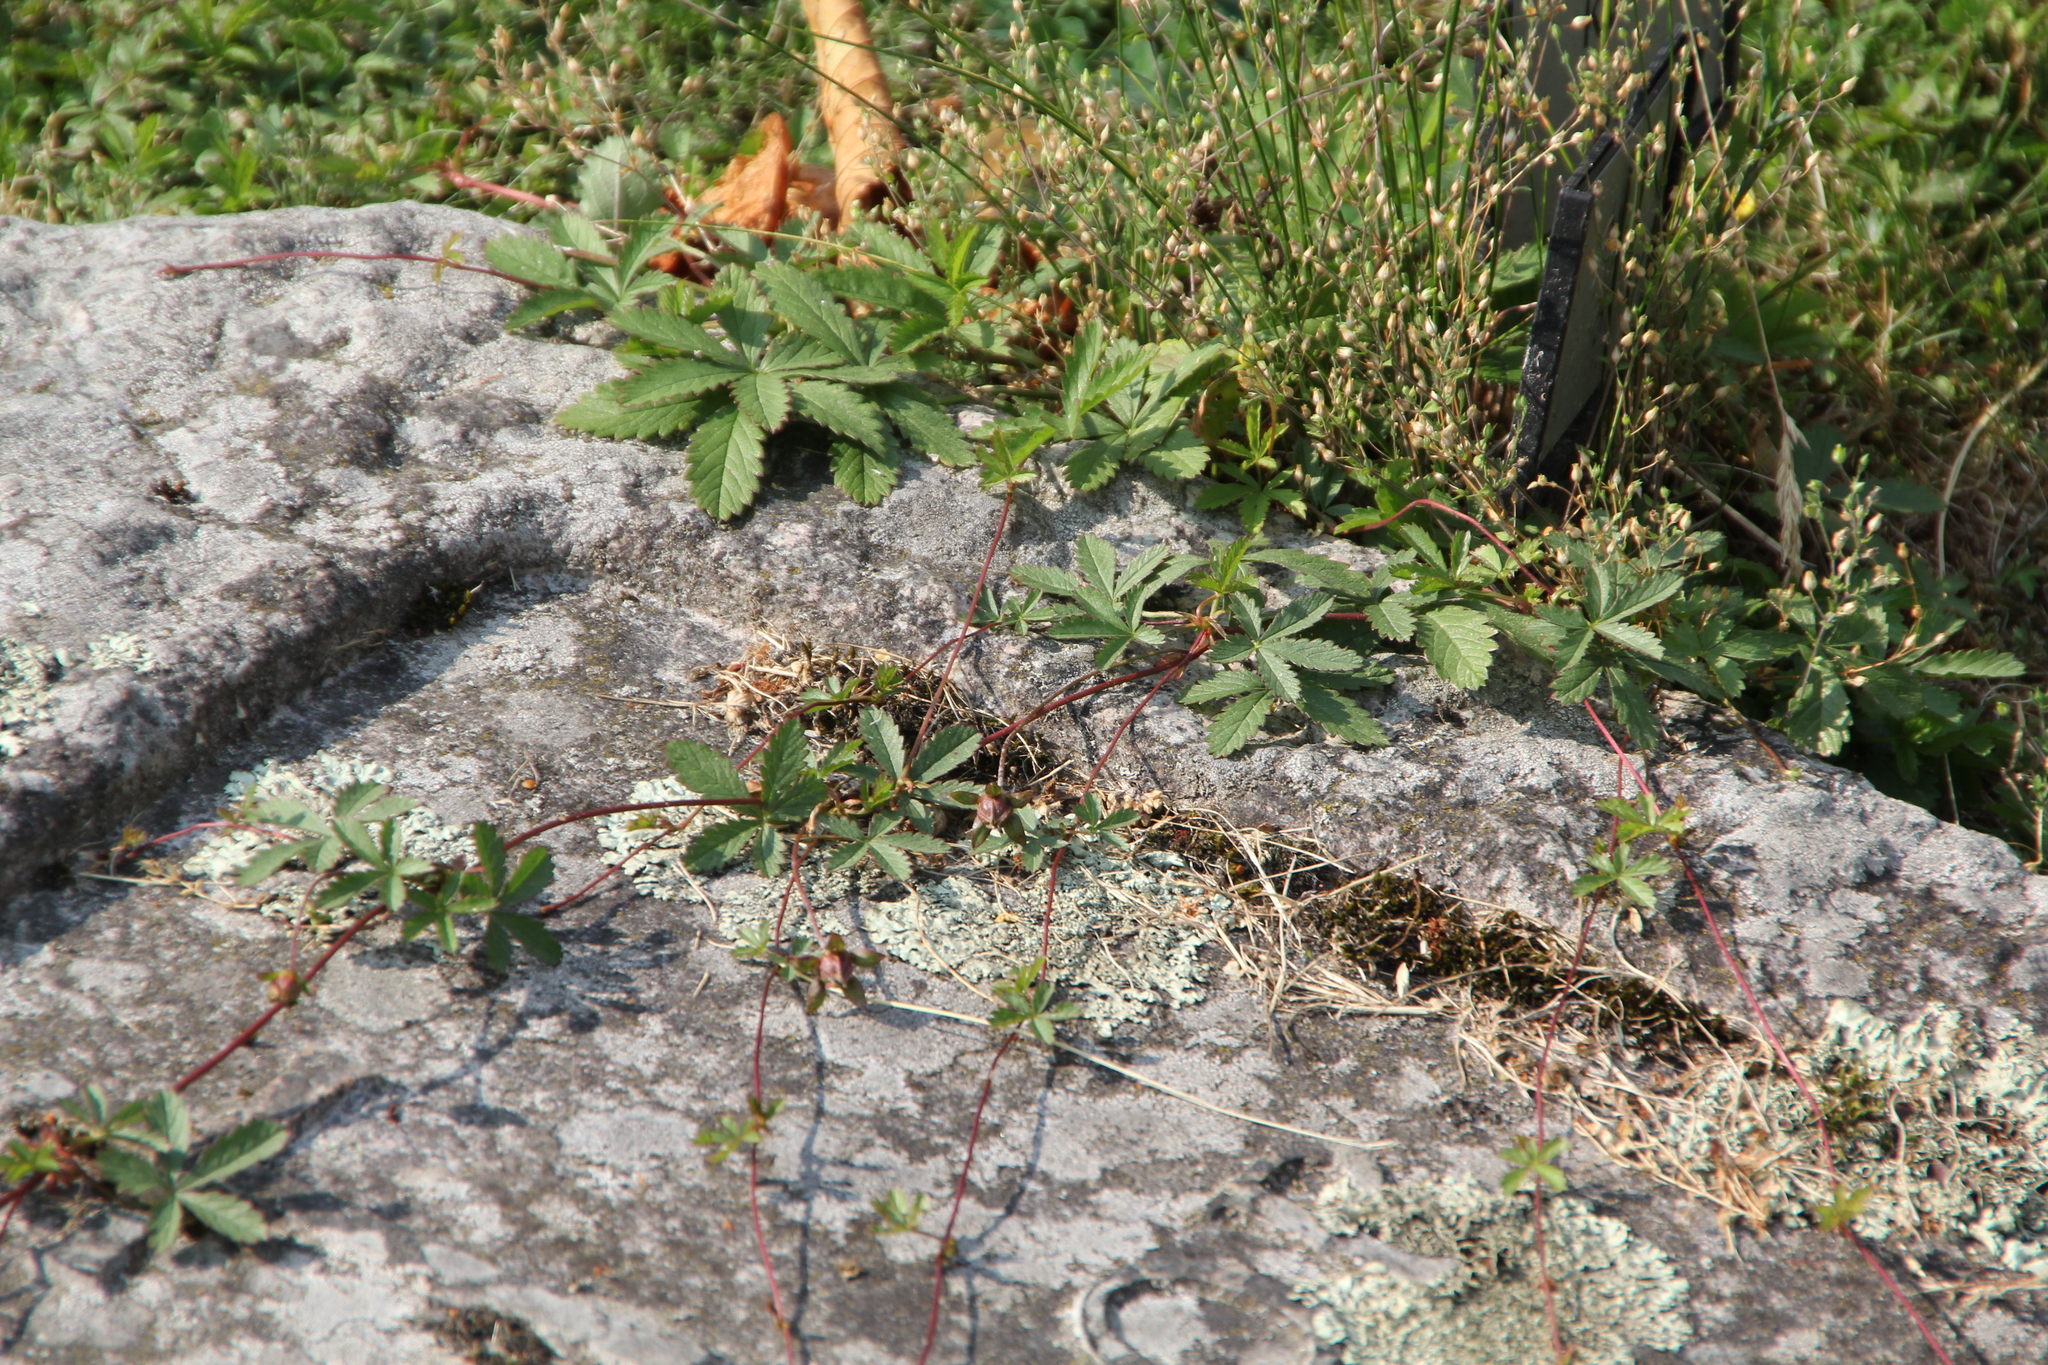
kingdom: Plantae
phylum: Tracheophyta
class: Magnoliopsida
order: Rosales
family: Rosaceae
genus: Potentilla
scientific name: Potentilla reptans
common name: Creeping cinquefoil
